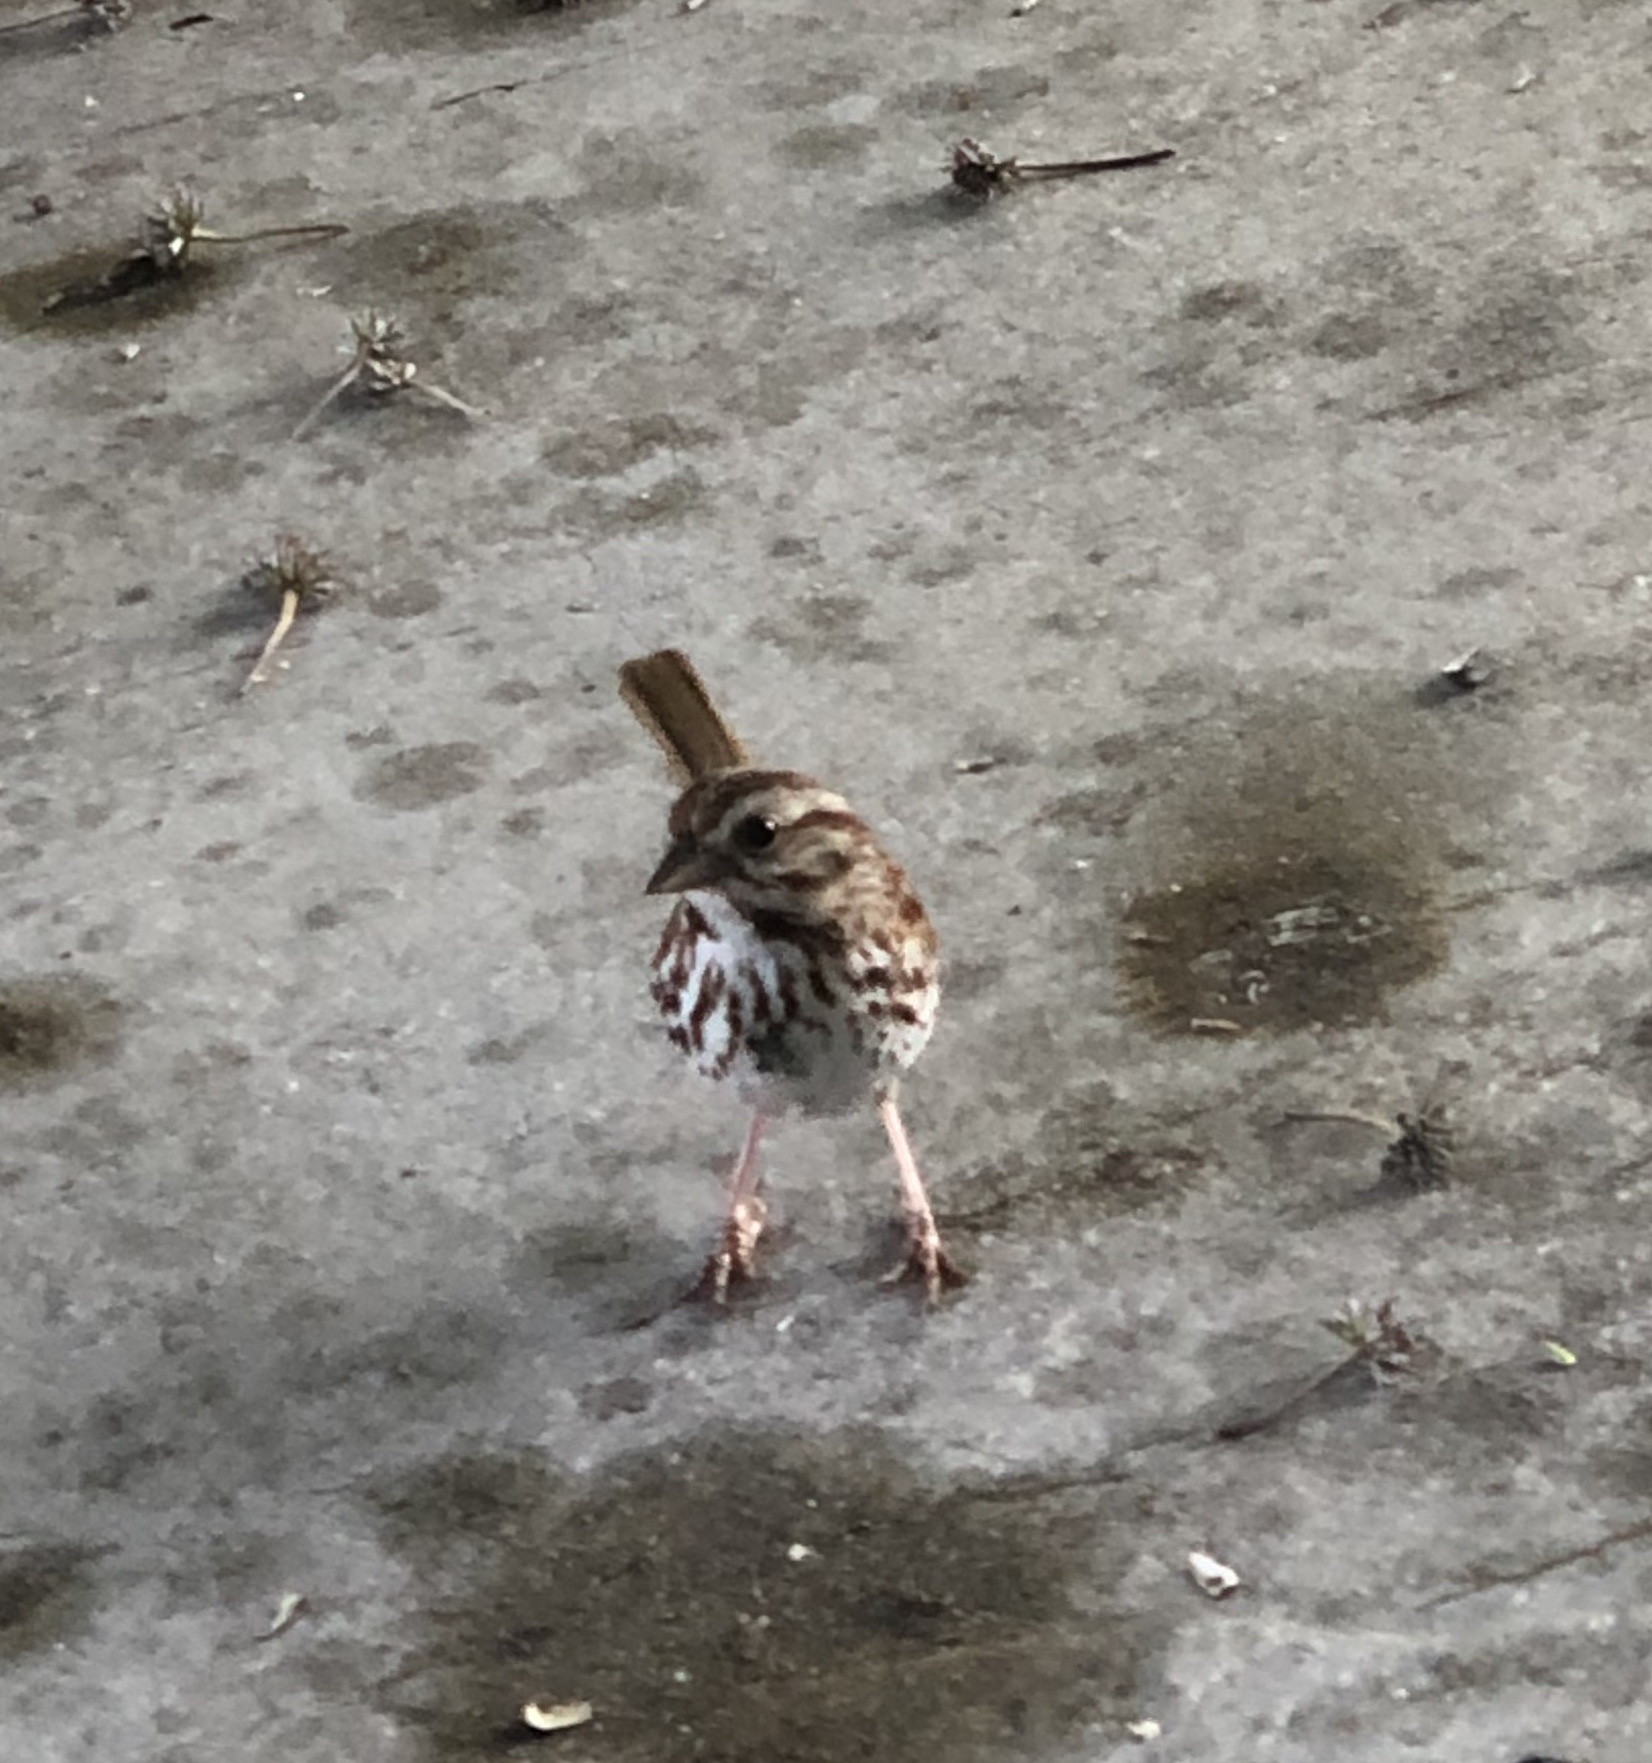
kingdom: Animalia
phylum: Chordata
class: Aves
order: Passeriformes
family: Passerellidae
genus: Melospiza
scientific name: Melospiza melodia
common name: Song sparrow
